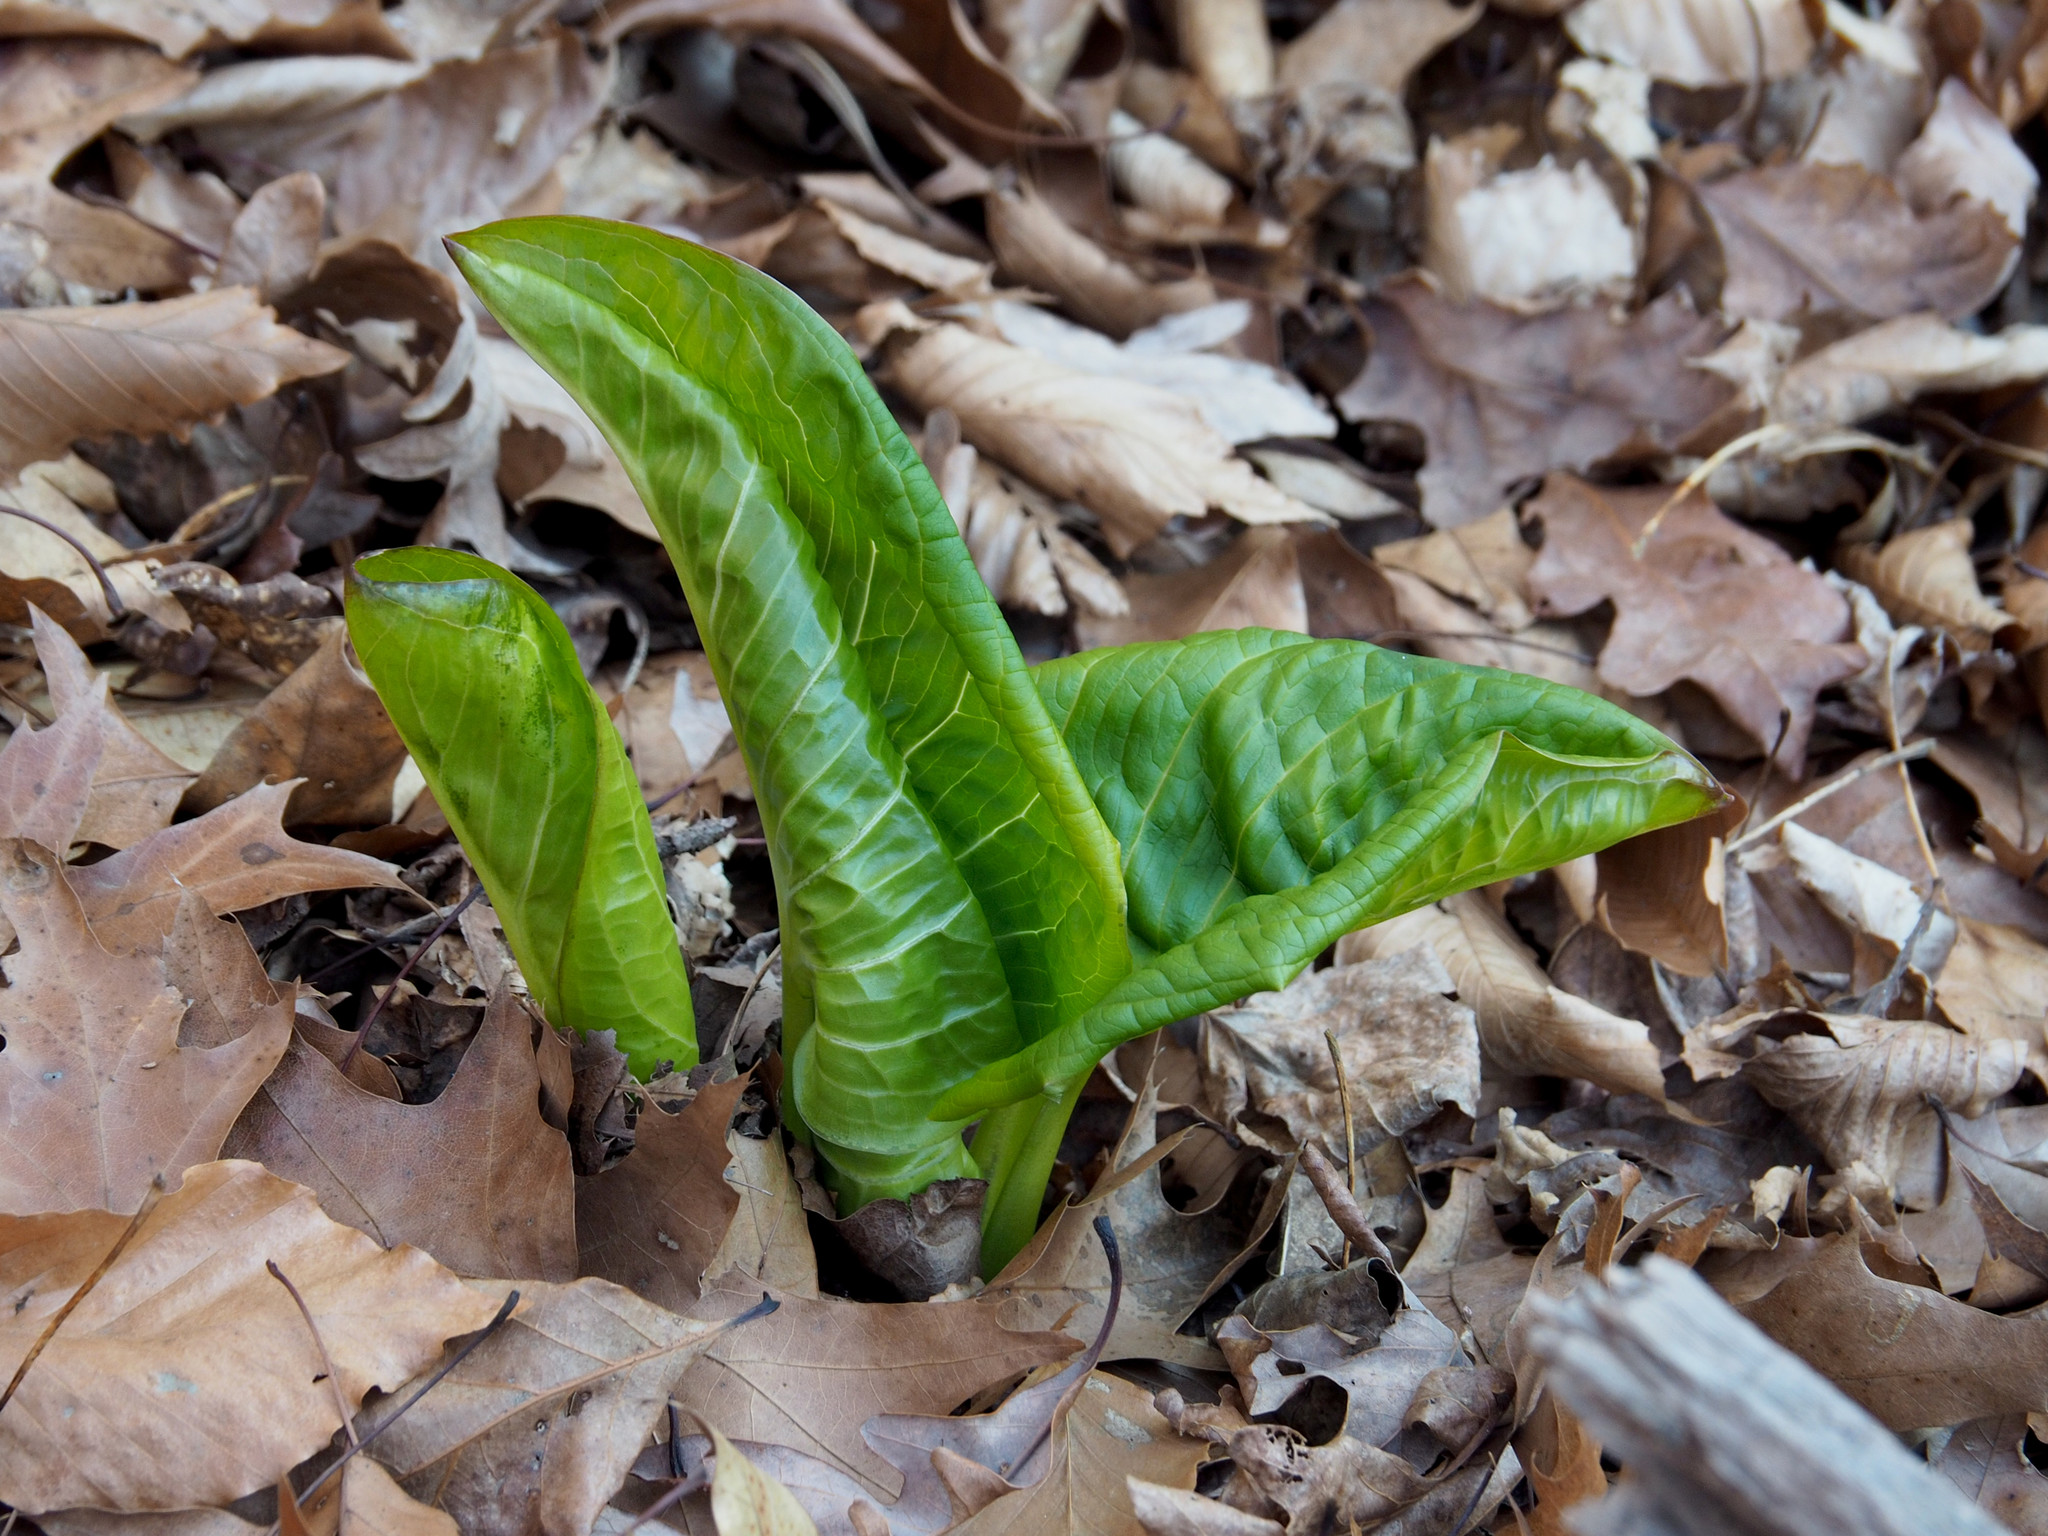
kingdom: Plantae
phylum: Tracheophyta
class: Liliopsida
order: Alismatales
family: Araceae
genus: Symplocarpus
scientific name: Symplocarpus foetidus
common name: Eastern skunk cabbage
